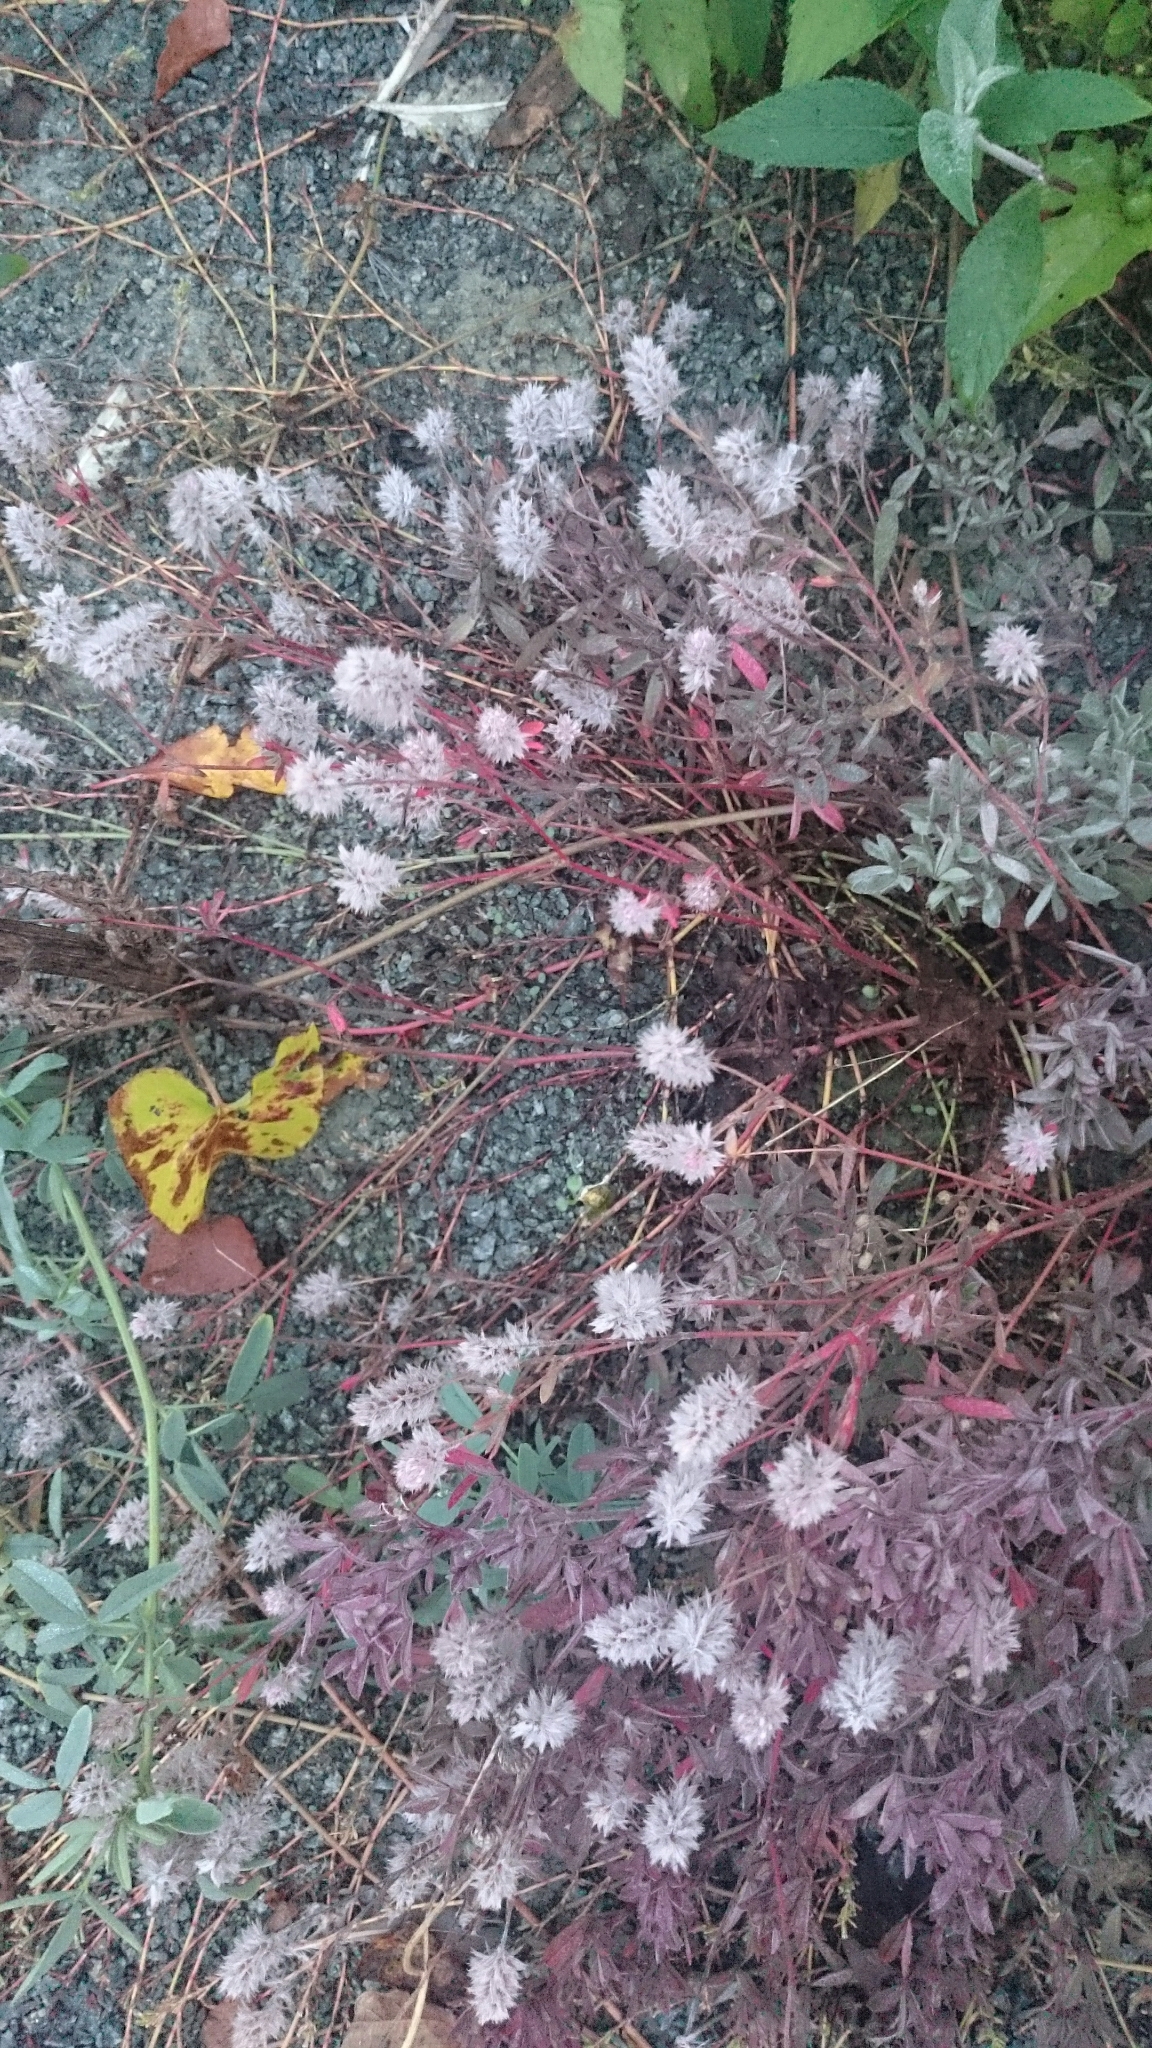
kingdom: Plantae
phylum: Tracheophyta
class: Magnoliopsida
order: Fabales
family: Fabaceae
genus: Trifolium
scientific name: Trifolium arvense
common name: Hare's-foot clover
